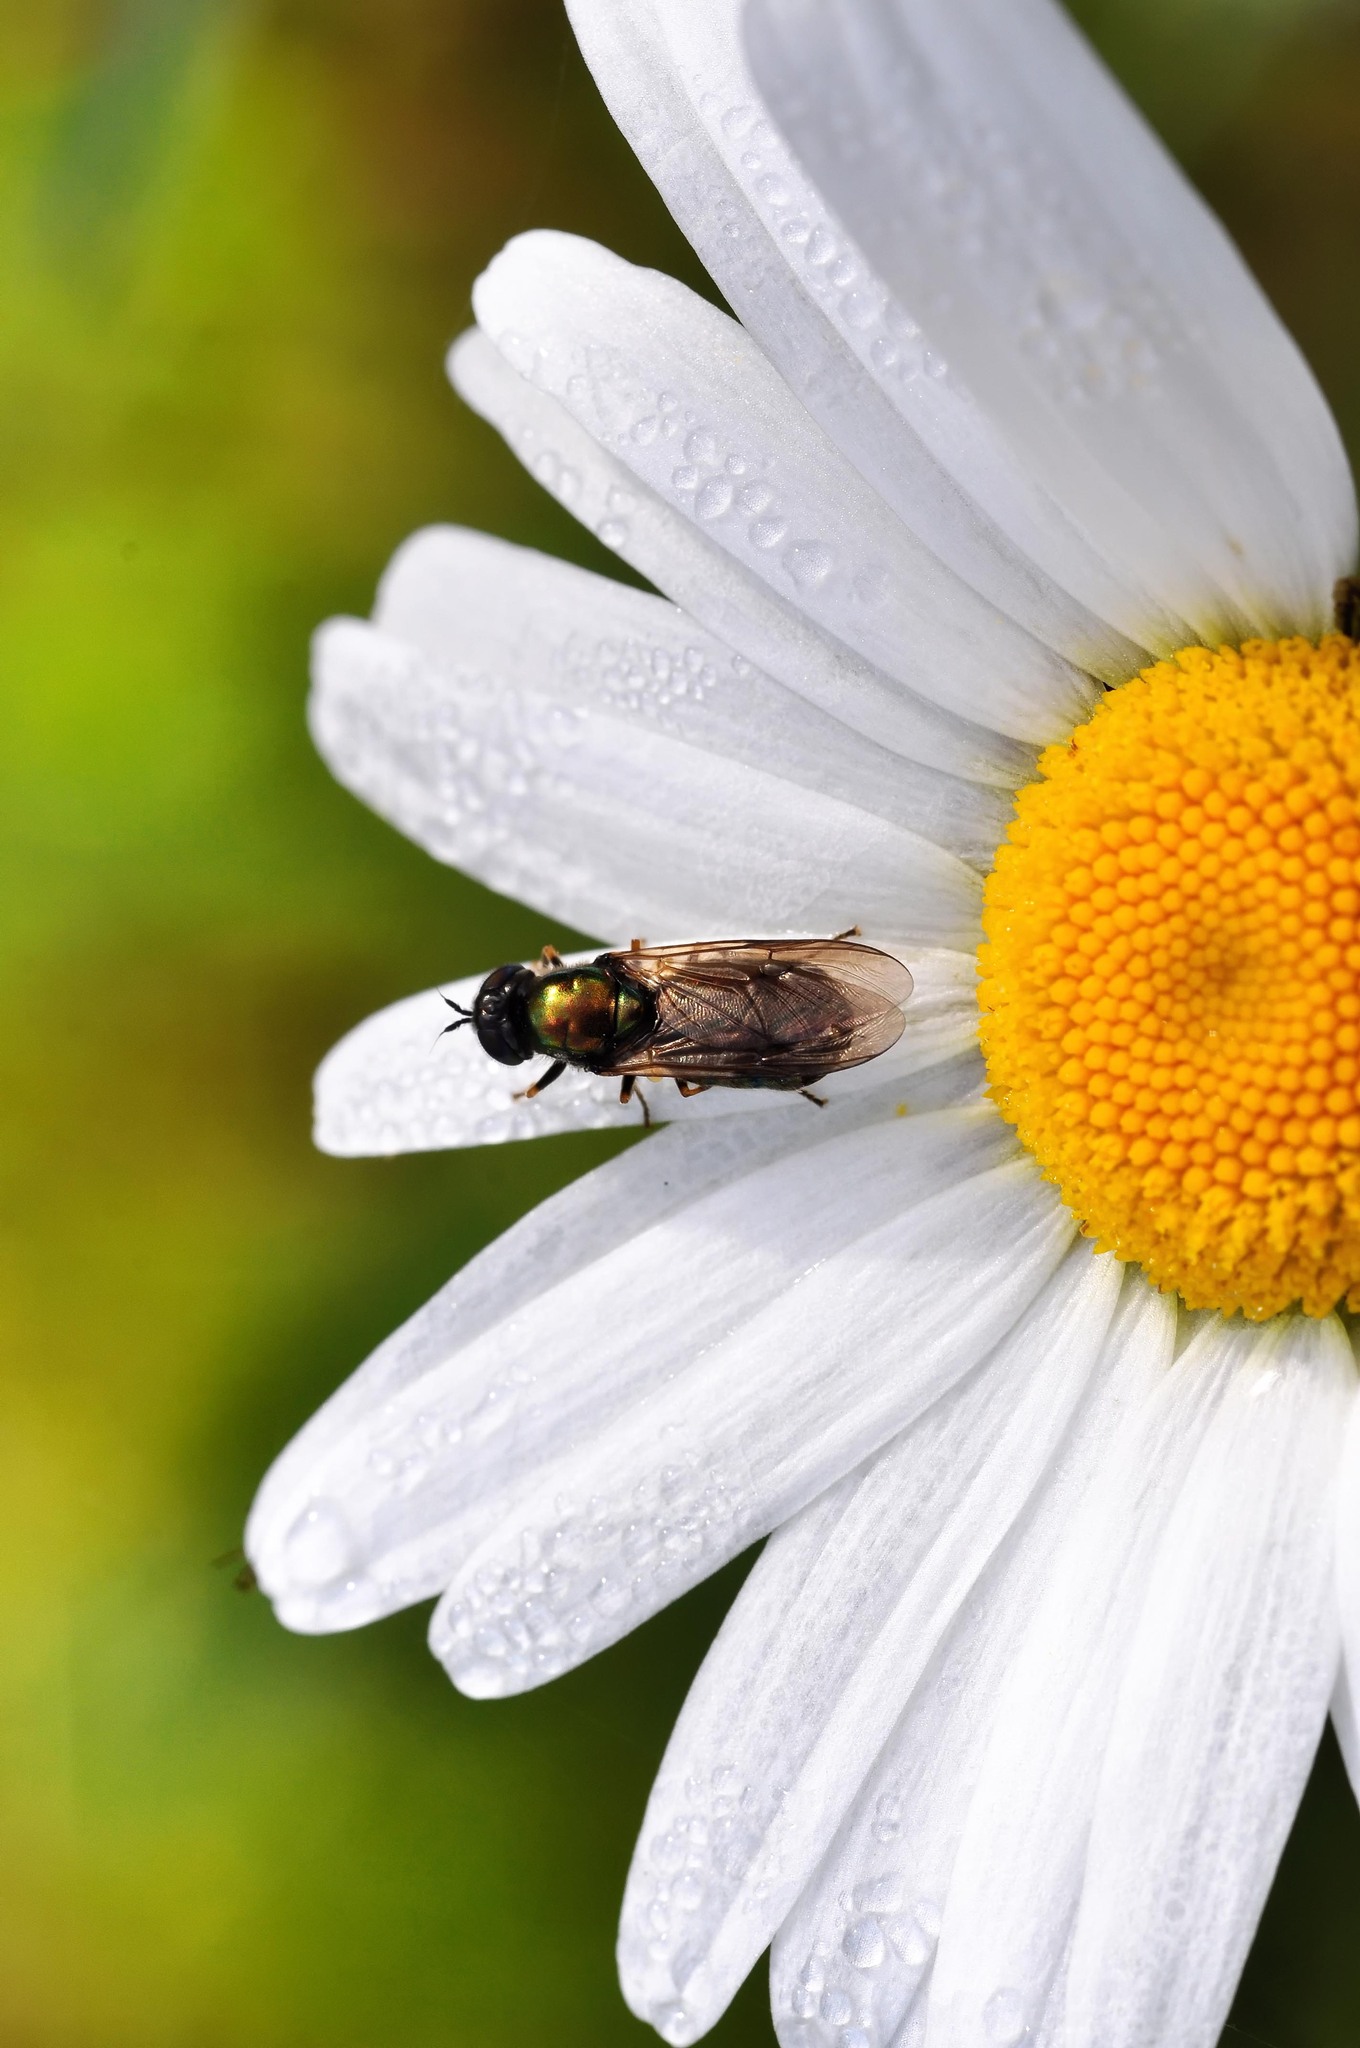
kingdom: Animalia
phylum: Arthropoda
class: Insecta
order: Diptera
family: Stratiomyidae
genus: Chloromyia
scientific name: Chloromyia formosa
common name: Soldier fly
